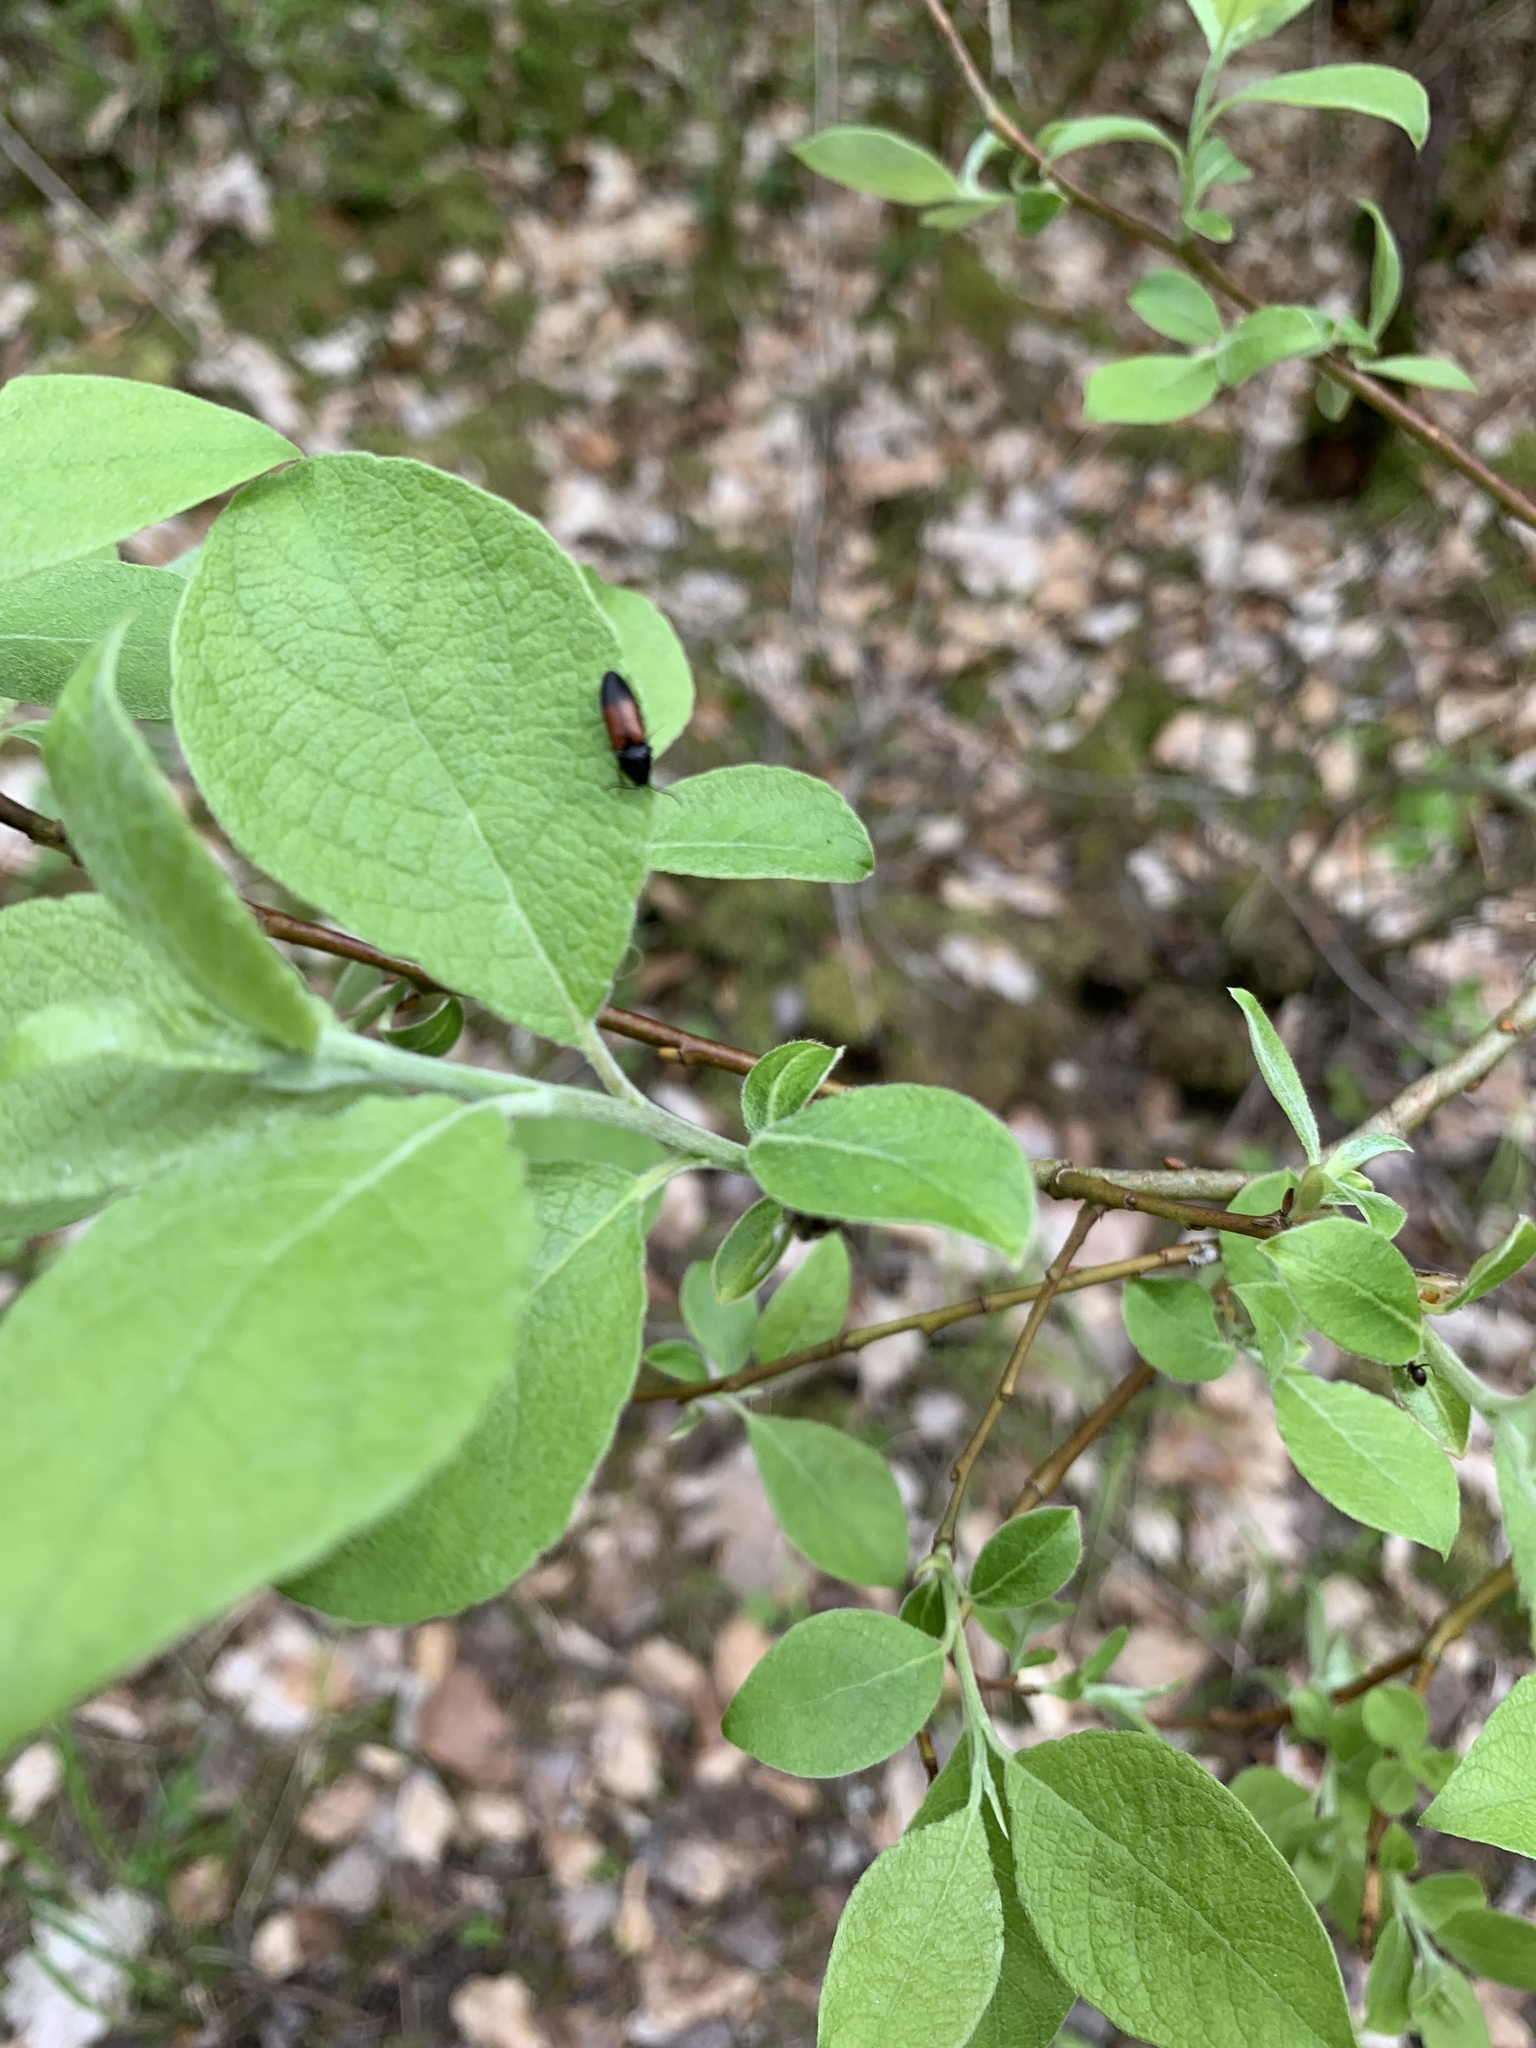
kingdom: Animalia
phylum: Arthropoda
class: Insecta
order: Coleoptera
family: Elateridae
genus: Ampedus
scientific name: Ampedus balteatus
